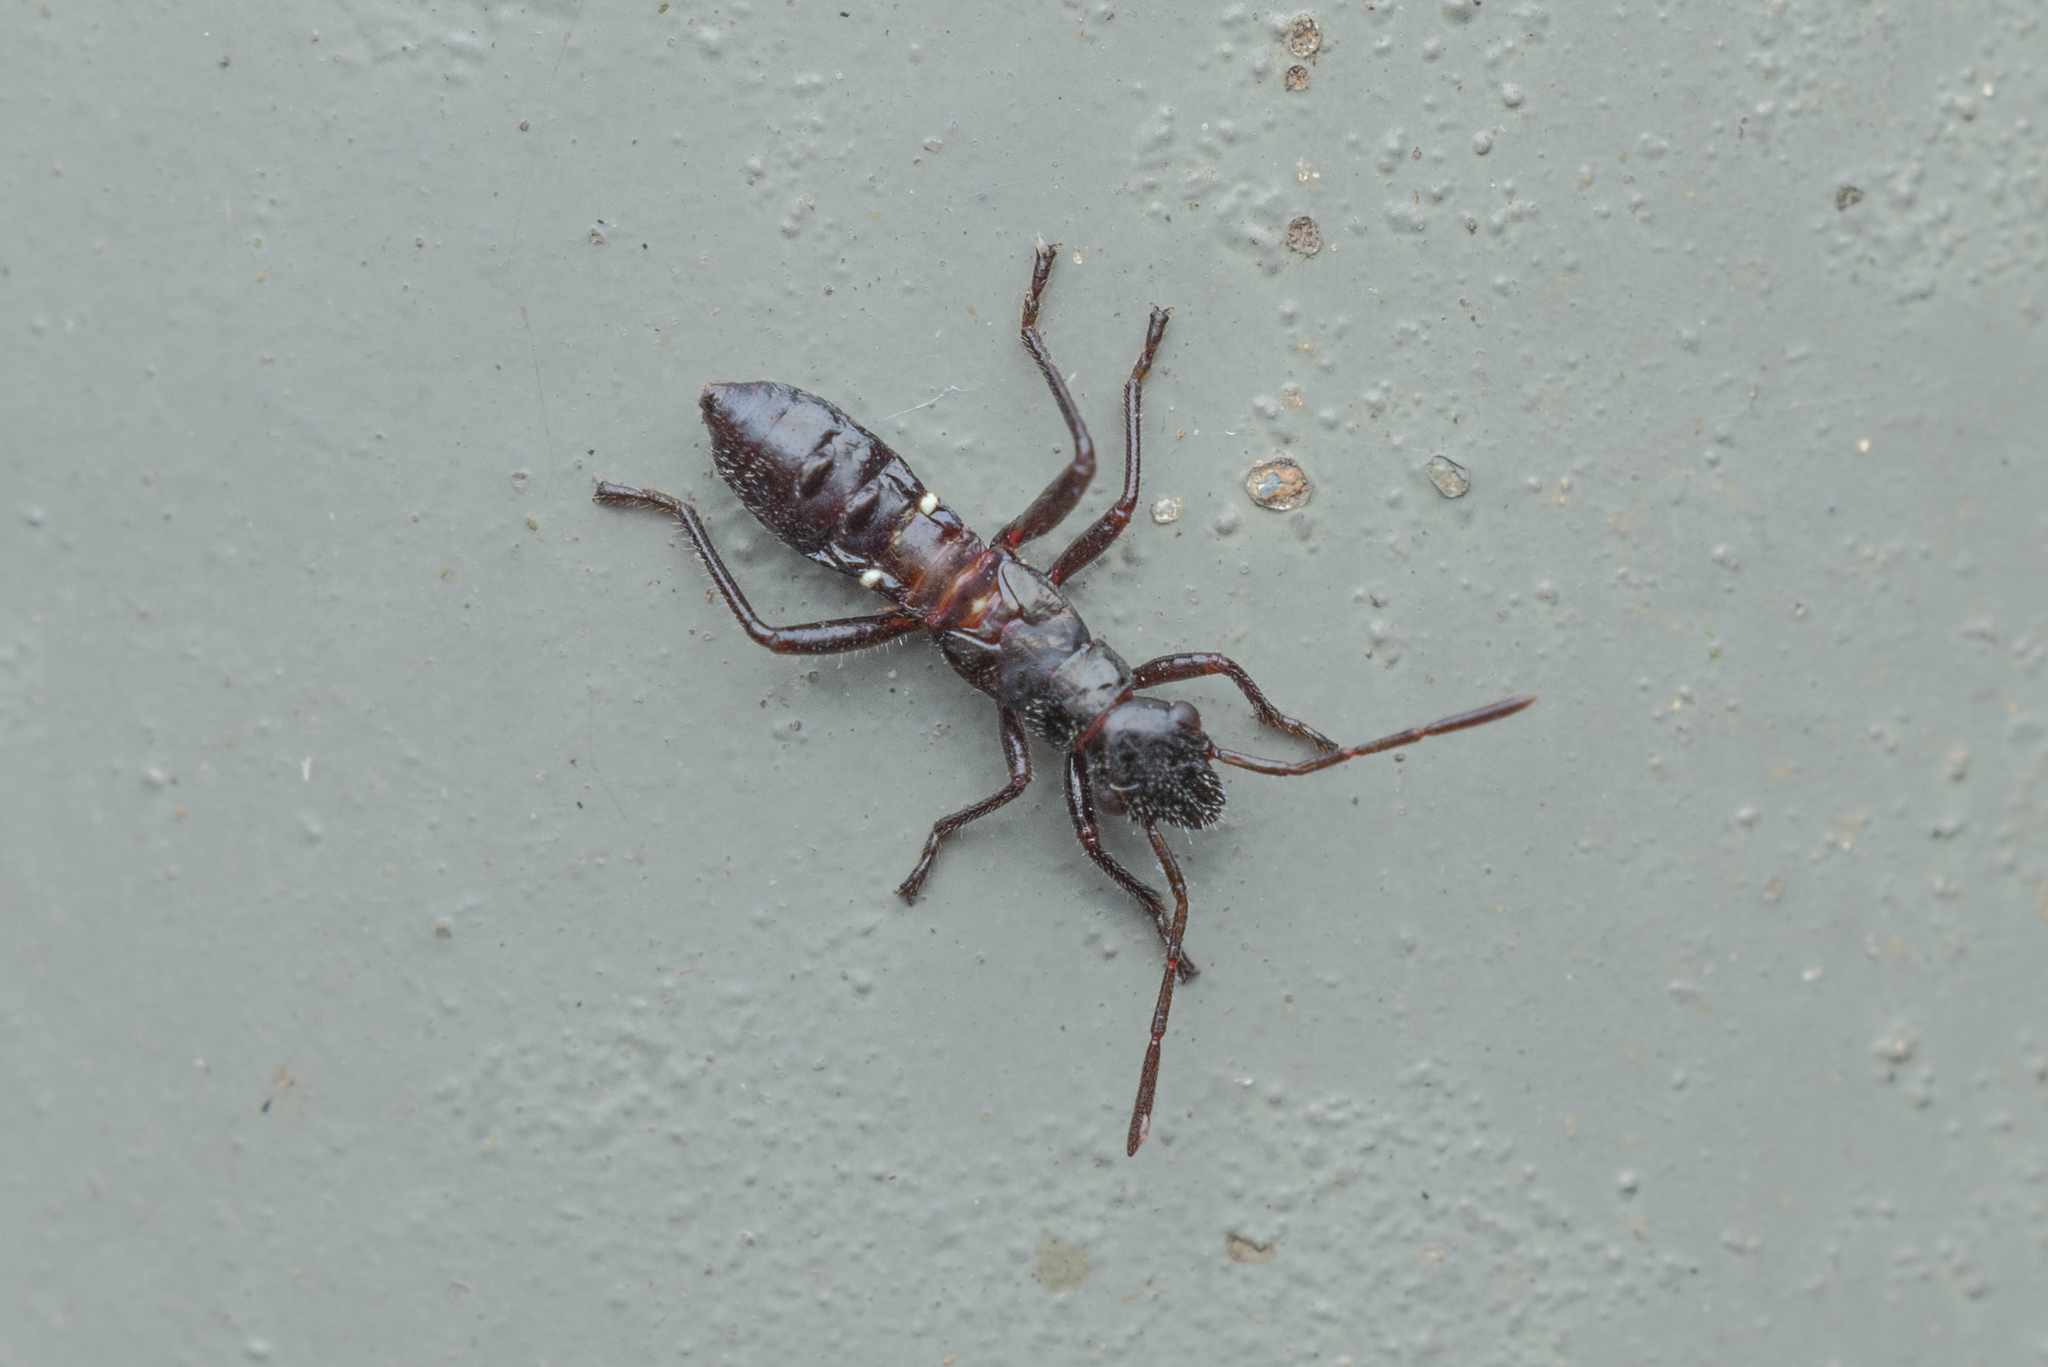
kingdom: Animalia
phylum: Arthropoda
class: Insecta
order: Hemiptera
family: Alydidae
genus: Daclera
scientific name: Daclera levana
